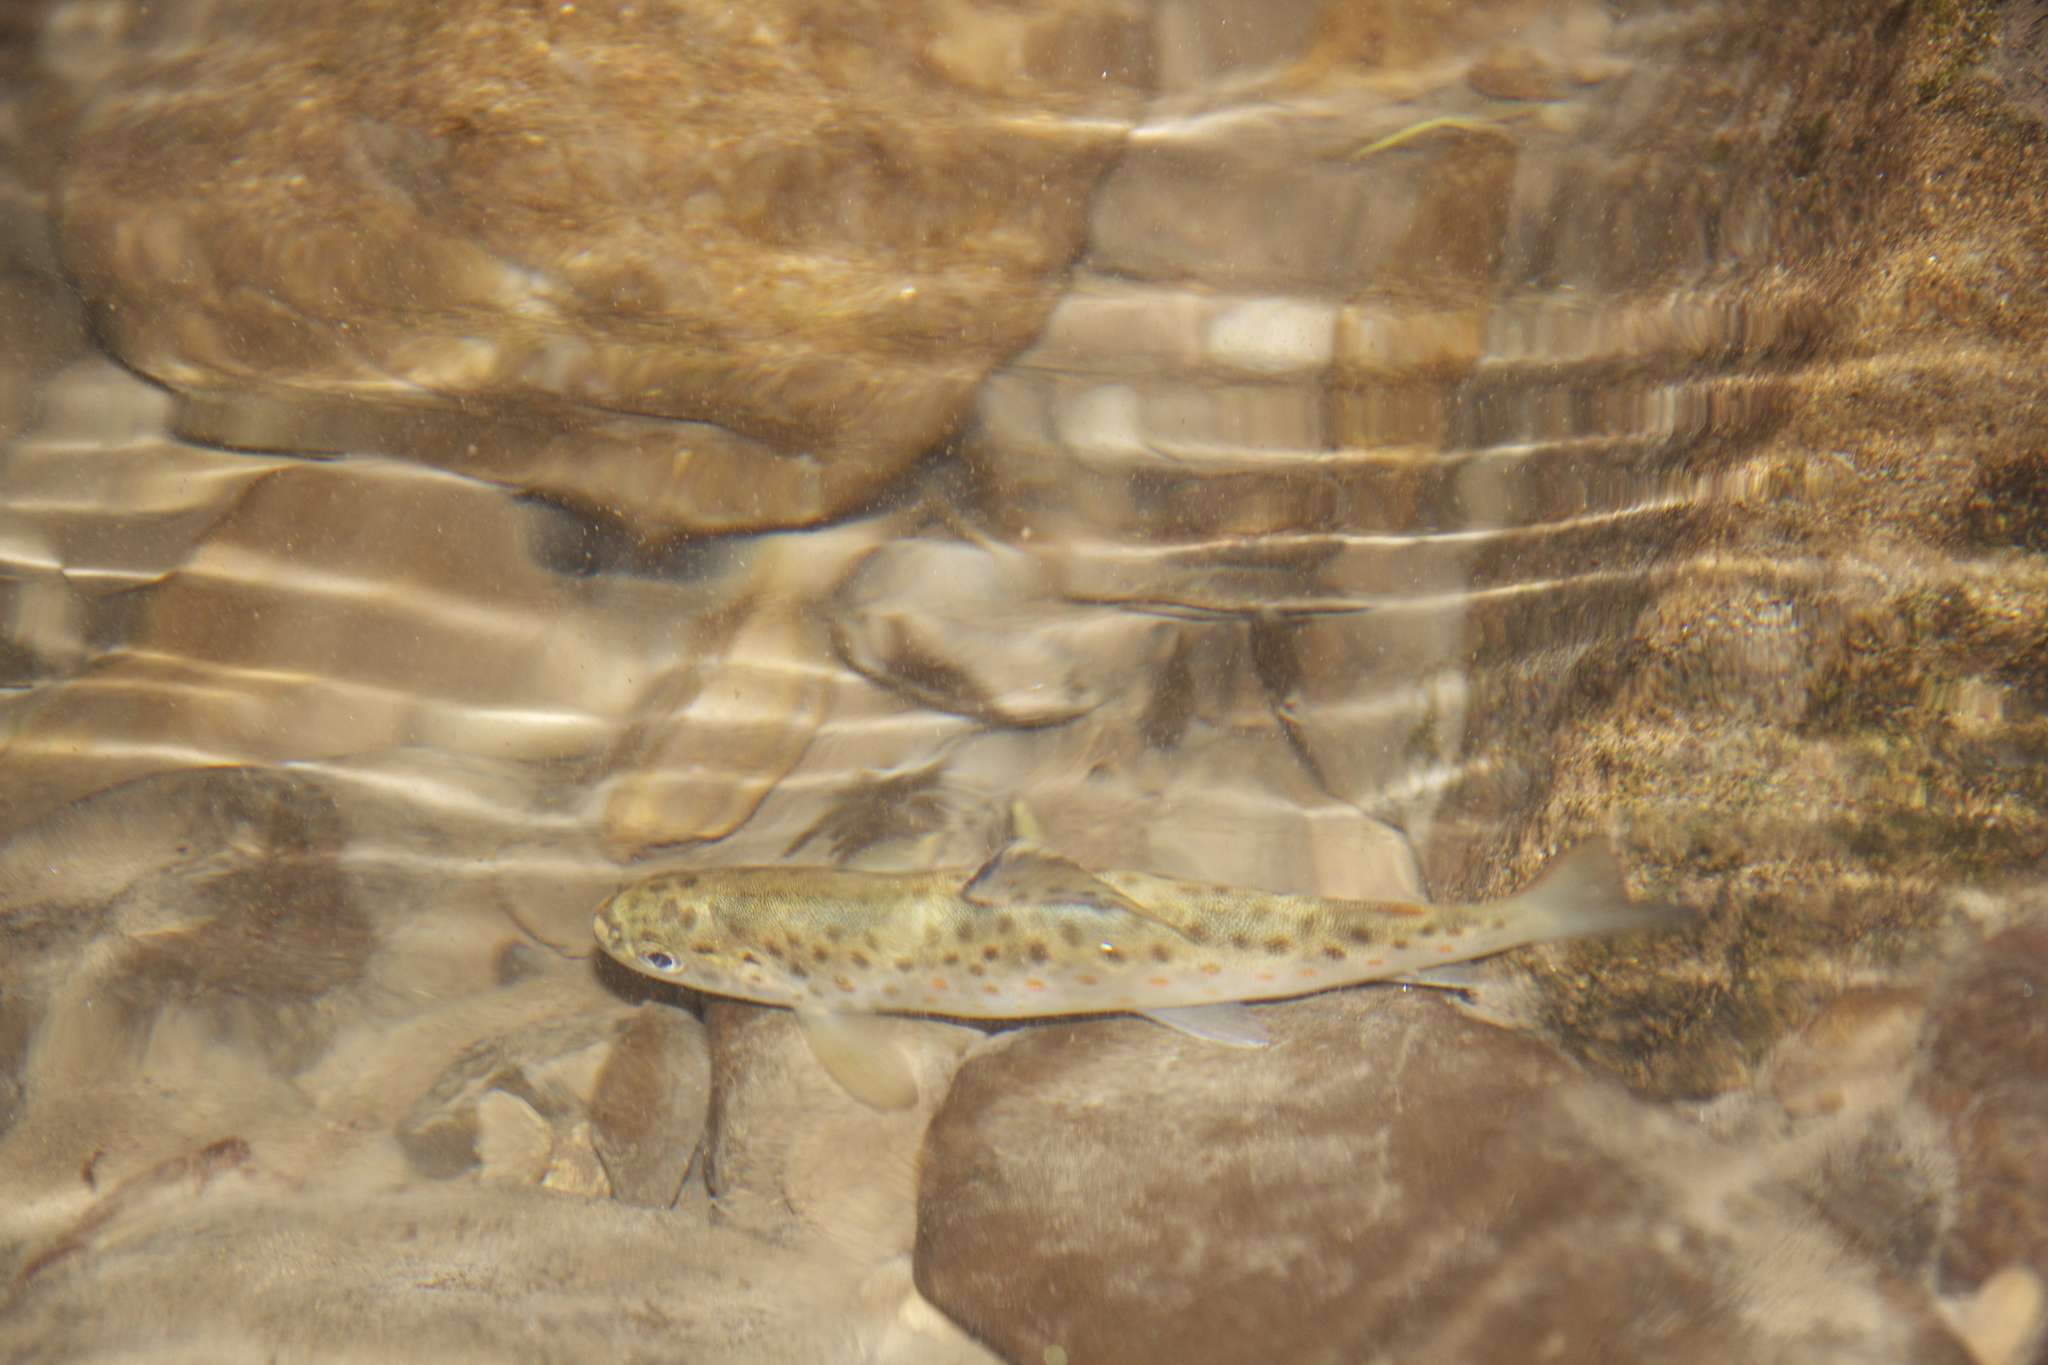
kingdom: Animalia
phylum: Chordata
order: Salmoniformes
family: Salmonidae
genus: Salmo
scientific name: Salmo trutta
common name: Brown trout
